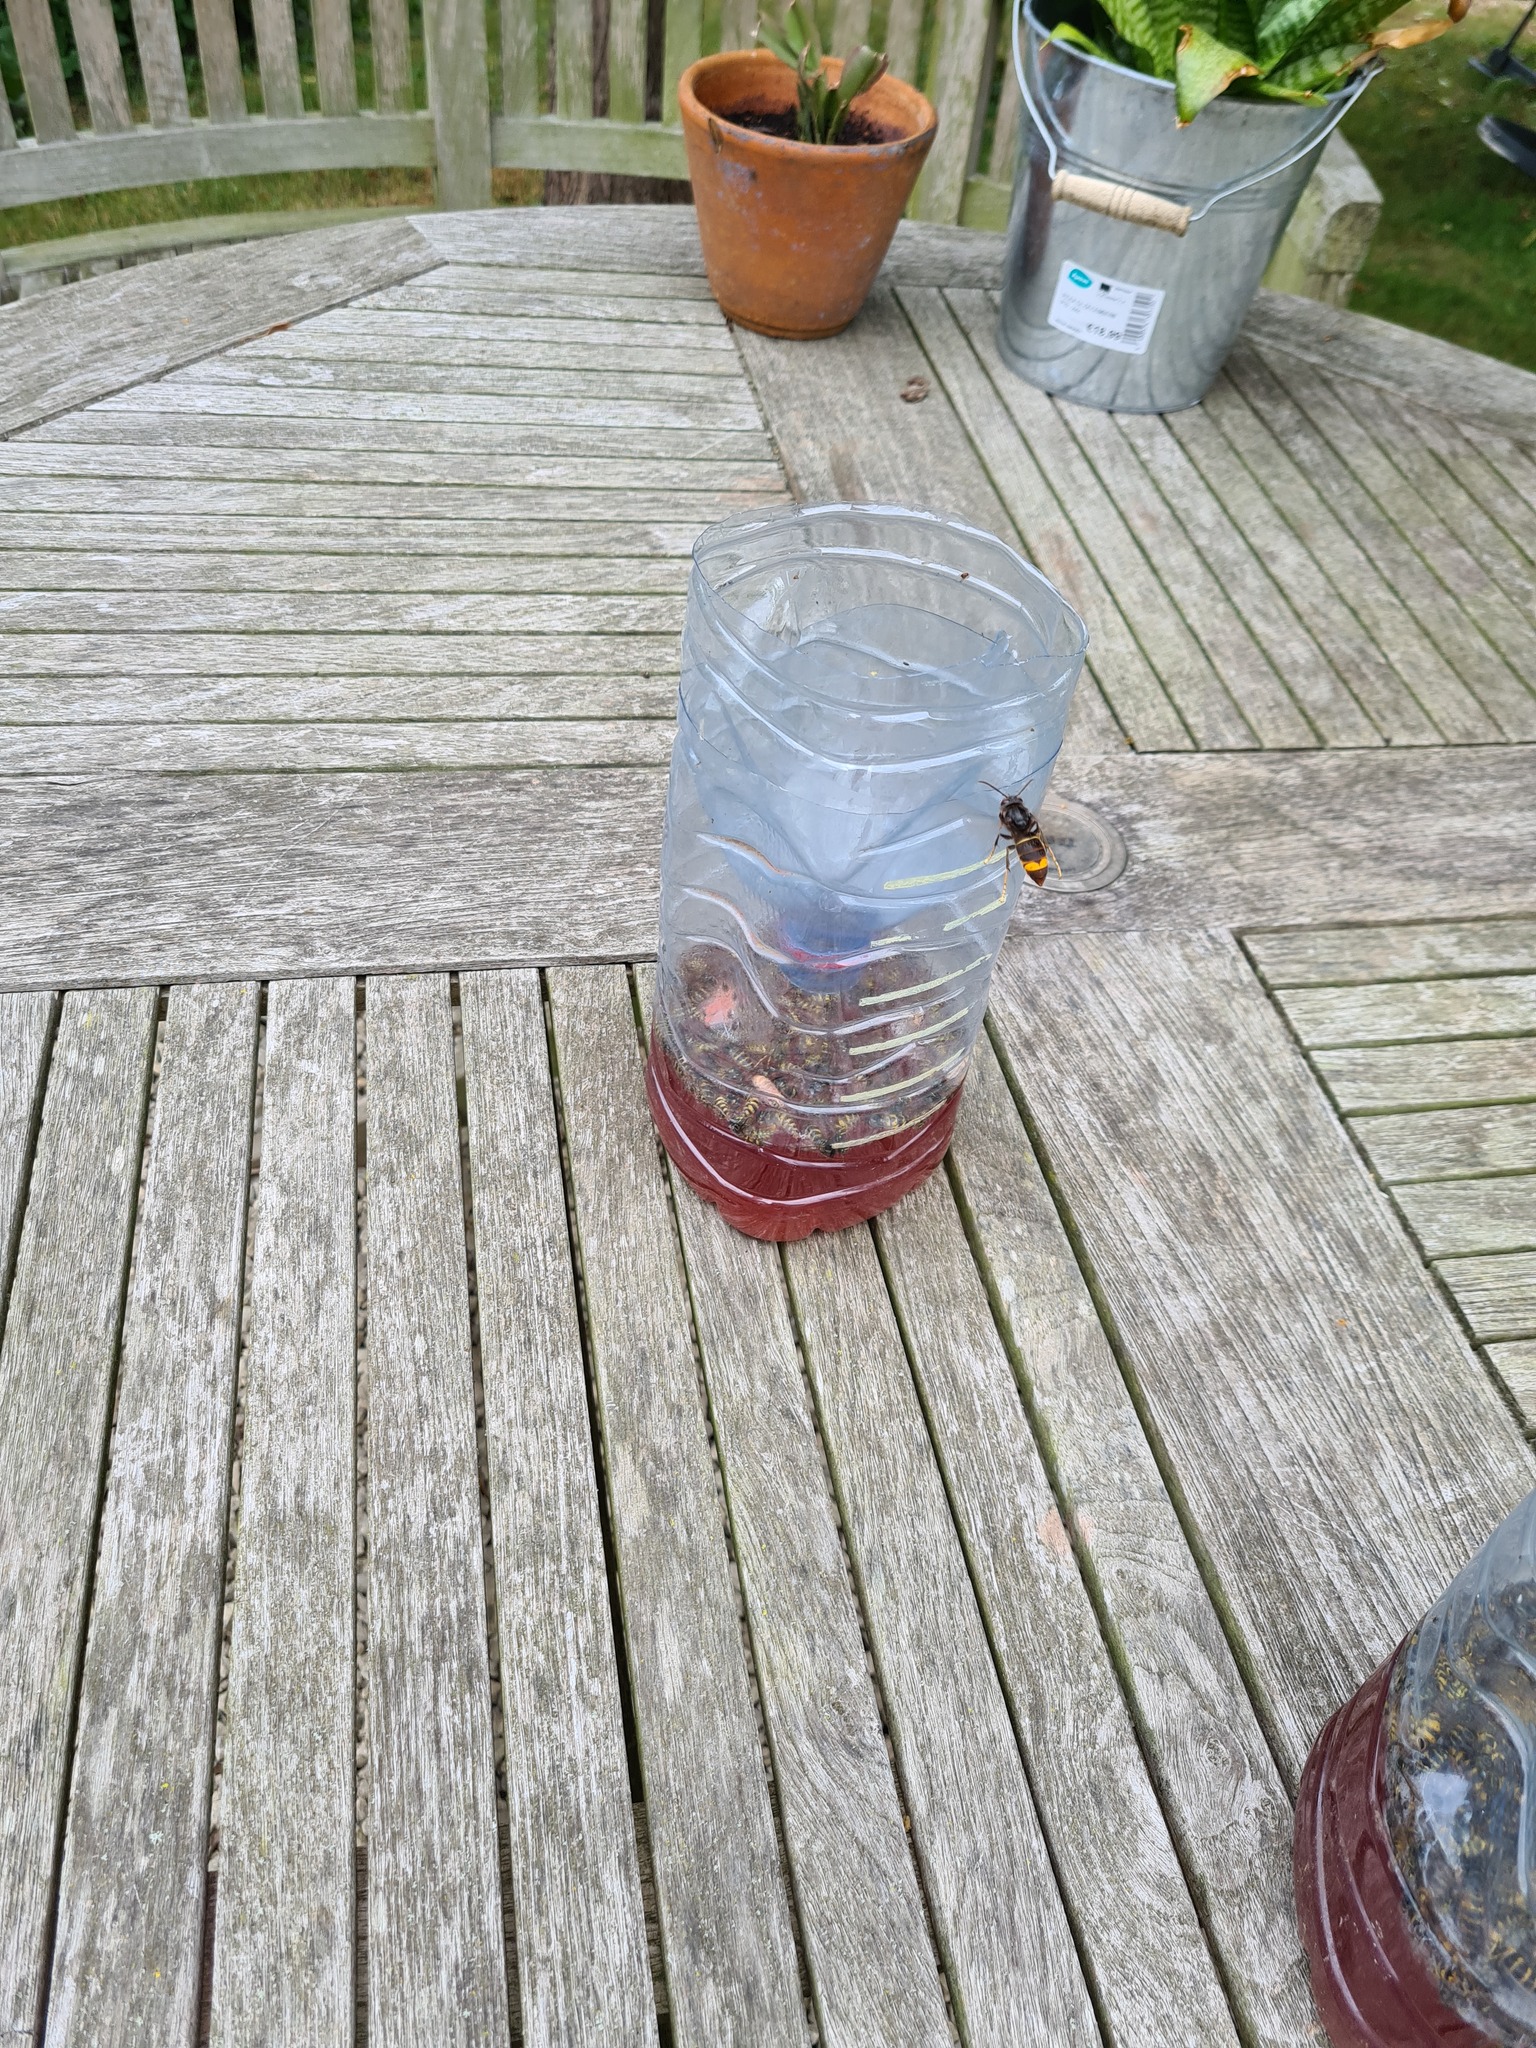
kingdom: Animalia
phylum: Arthropoda
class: Insecta
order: Hymenoptera
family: Vespidae
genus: Vespa
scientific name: Vespa velutina
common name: Asian hornet
